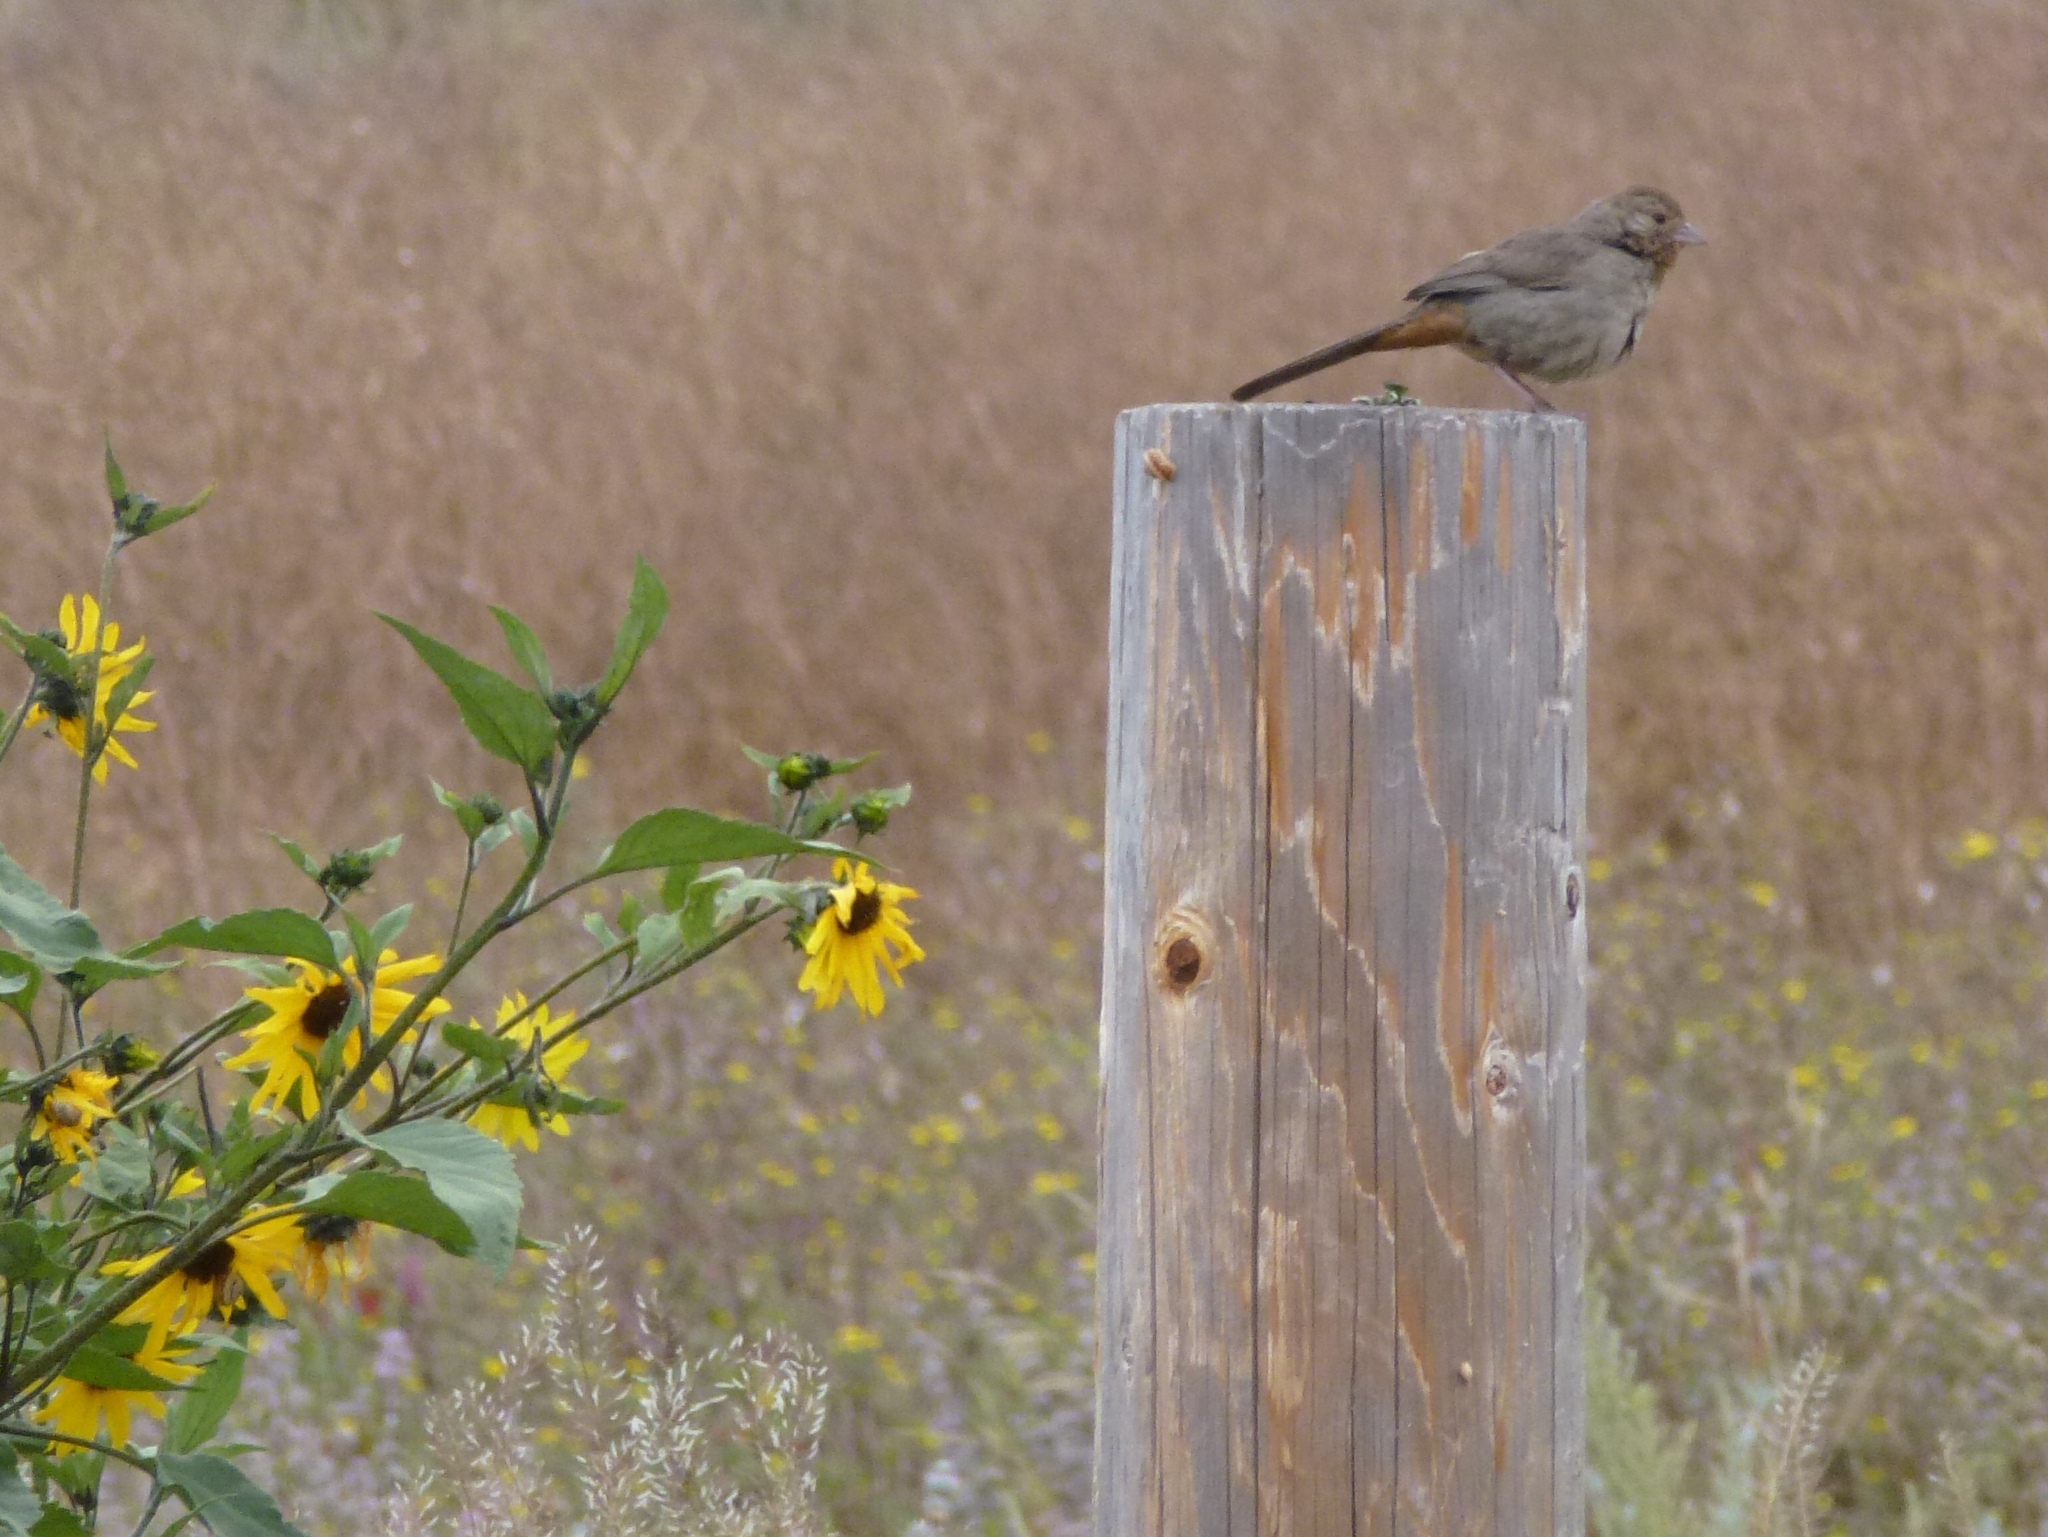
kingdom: Animalia
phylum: Chordata
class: Aves
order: Passeriformes
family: Passerellidae
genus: Melozone
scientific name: Melozone crissalis
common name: California towhee
